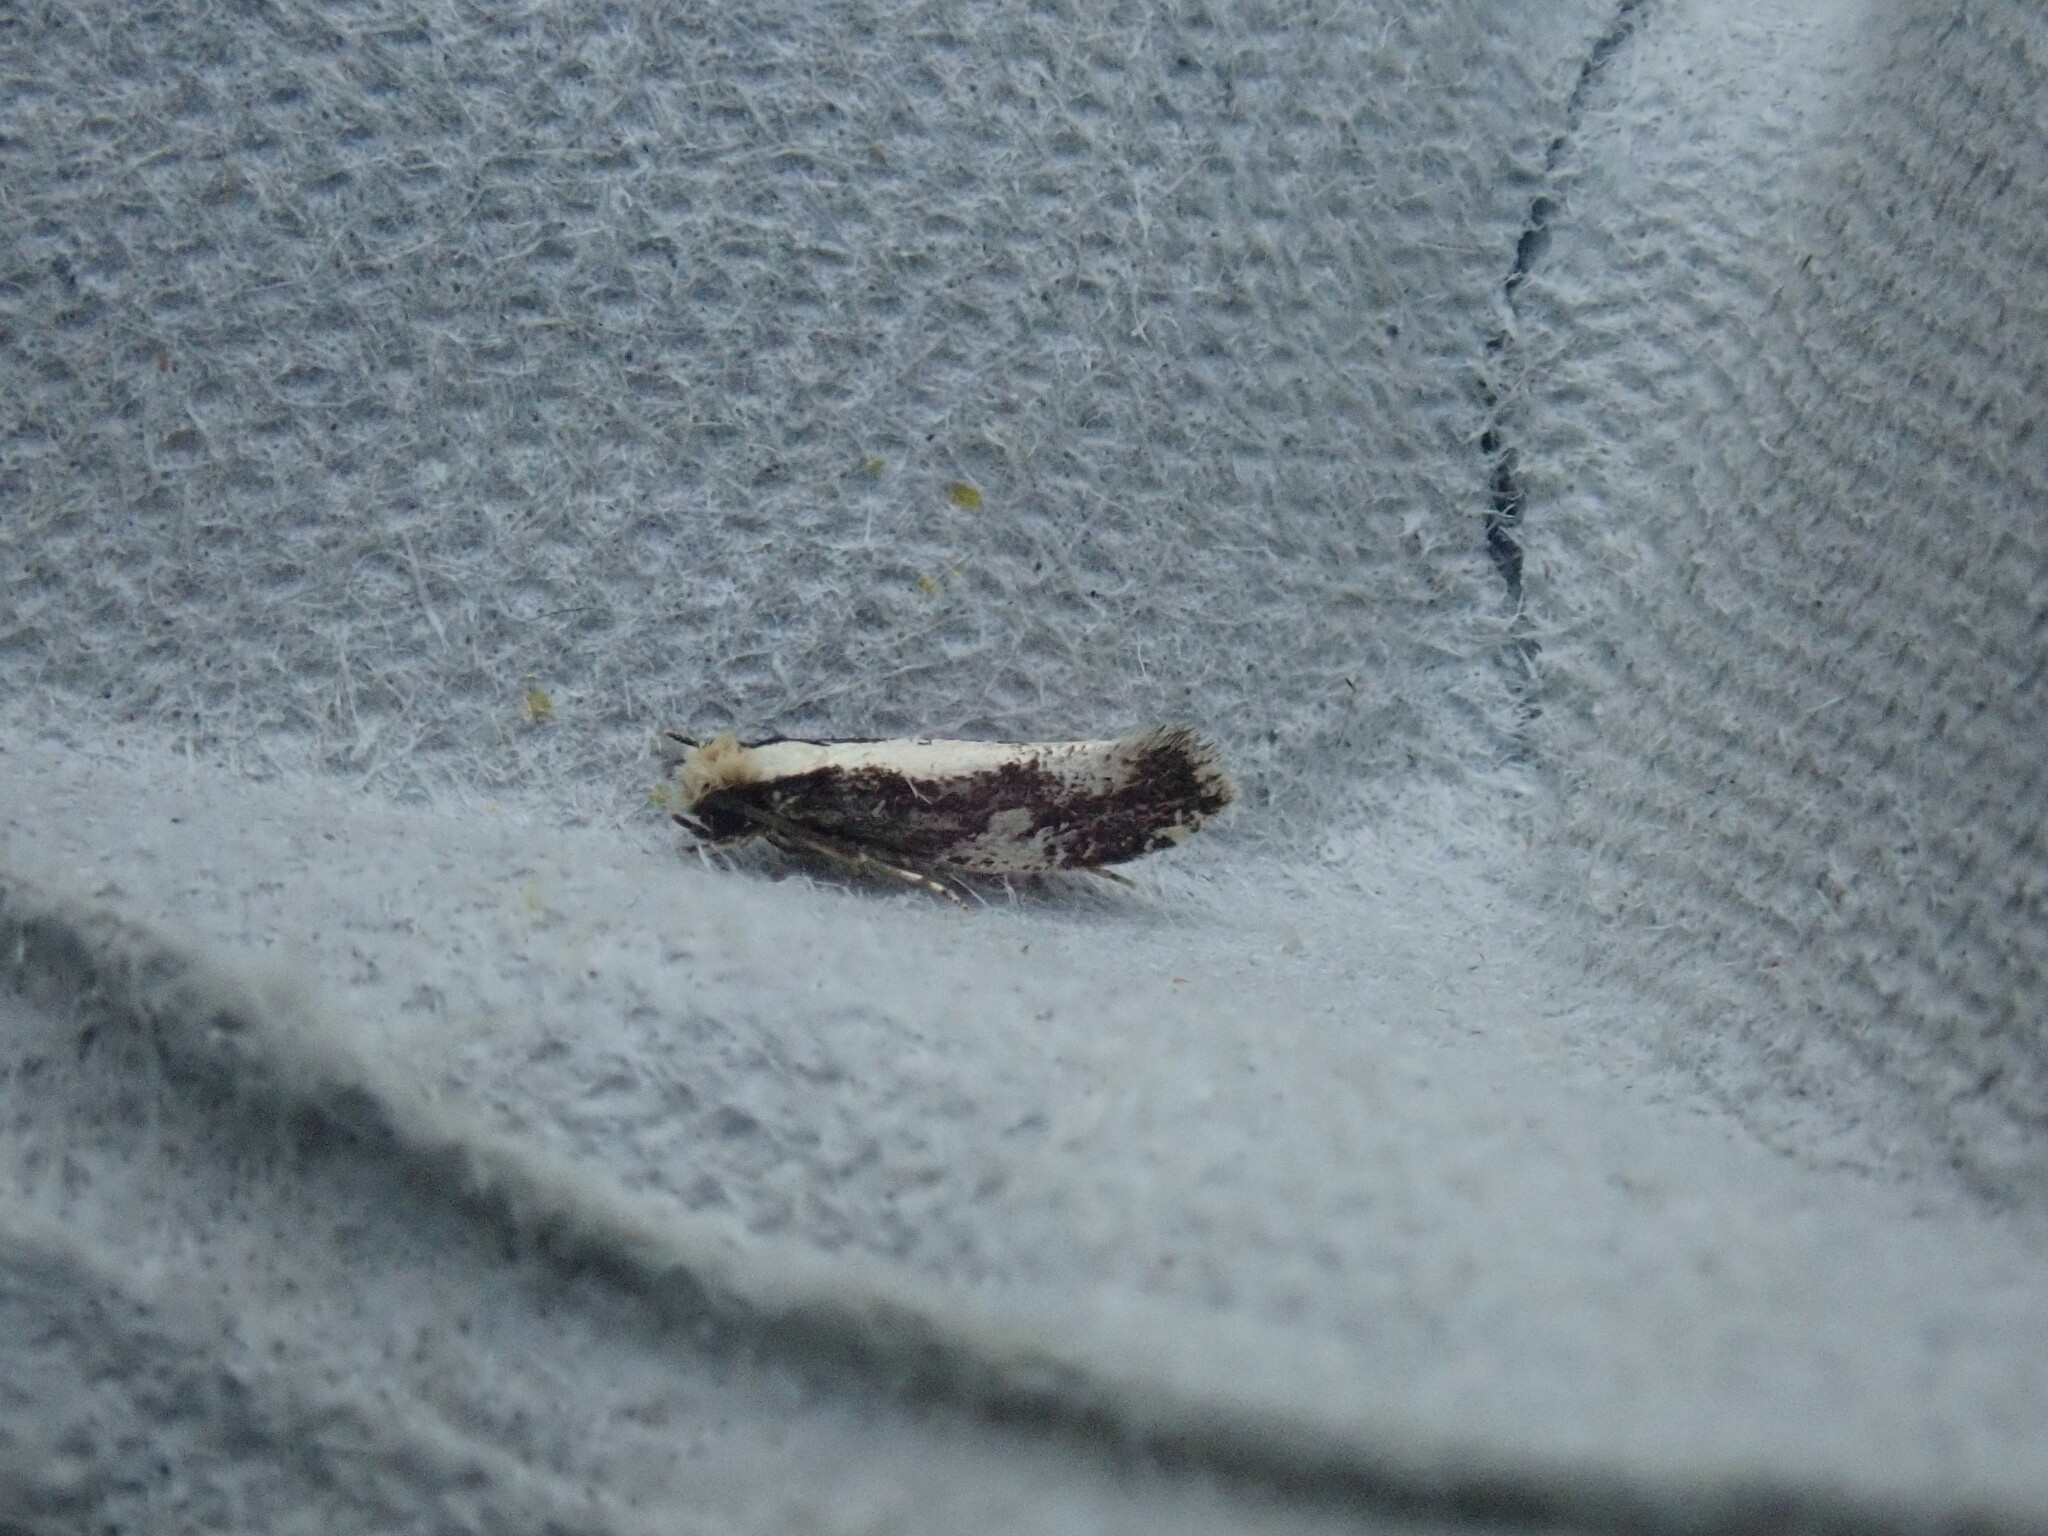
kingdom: Animalia
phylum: Arthropoda
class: Insecta
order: Lepidoptera
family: Tineidae
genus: Monopis
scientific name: Monopis dorsistrigella
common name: Skunkback monopis moth
